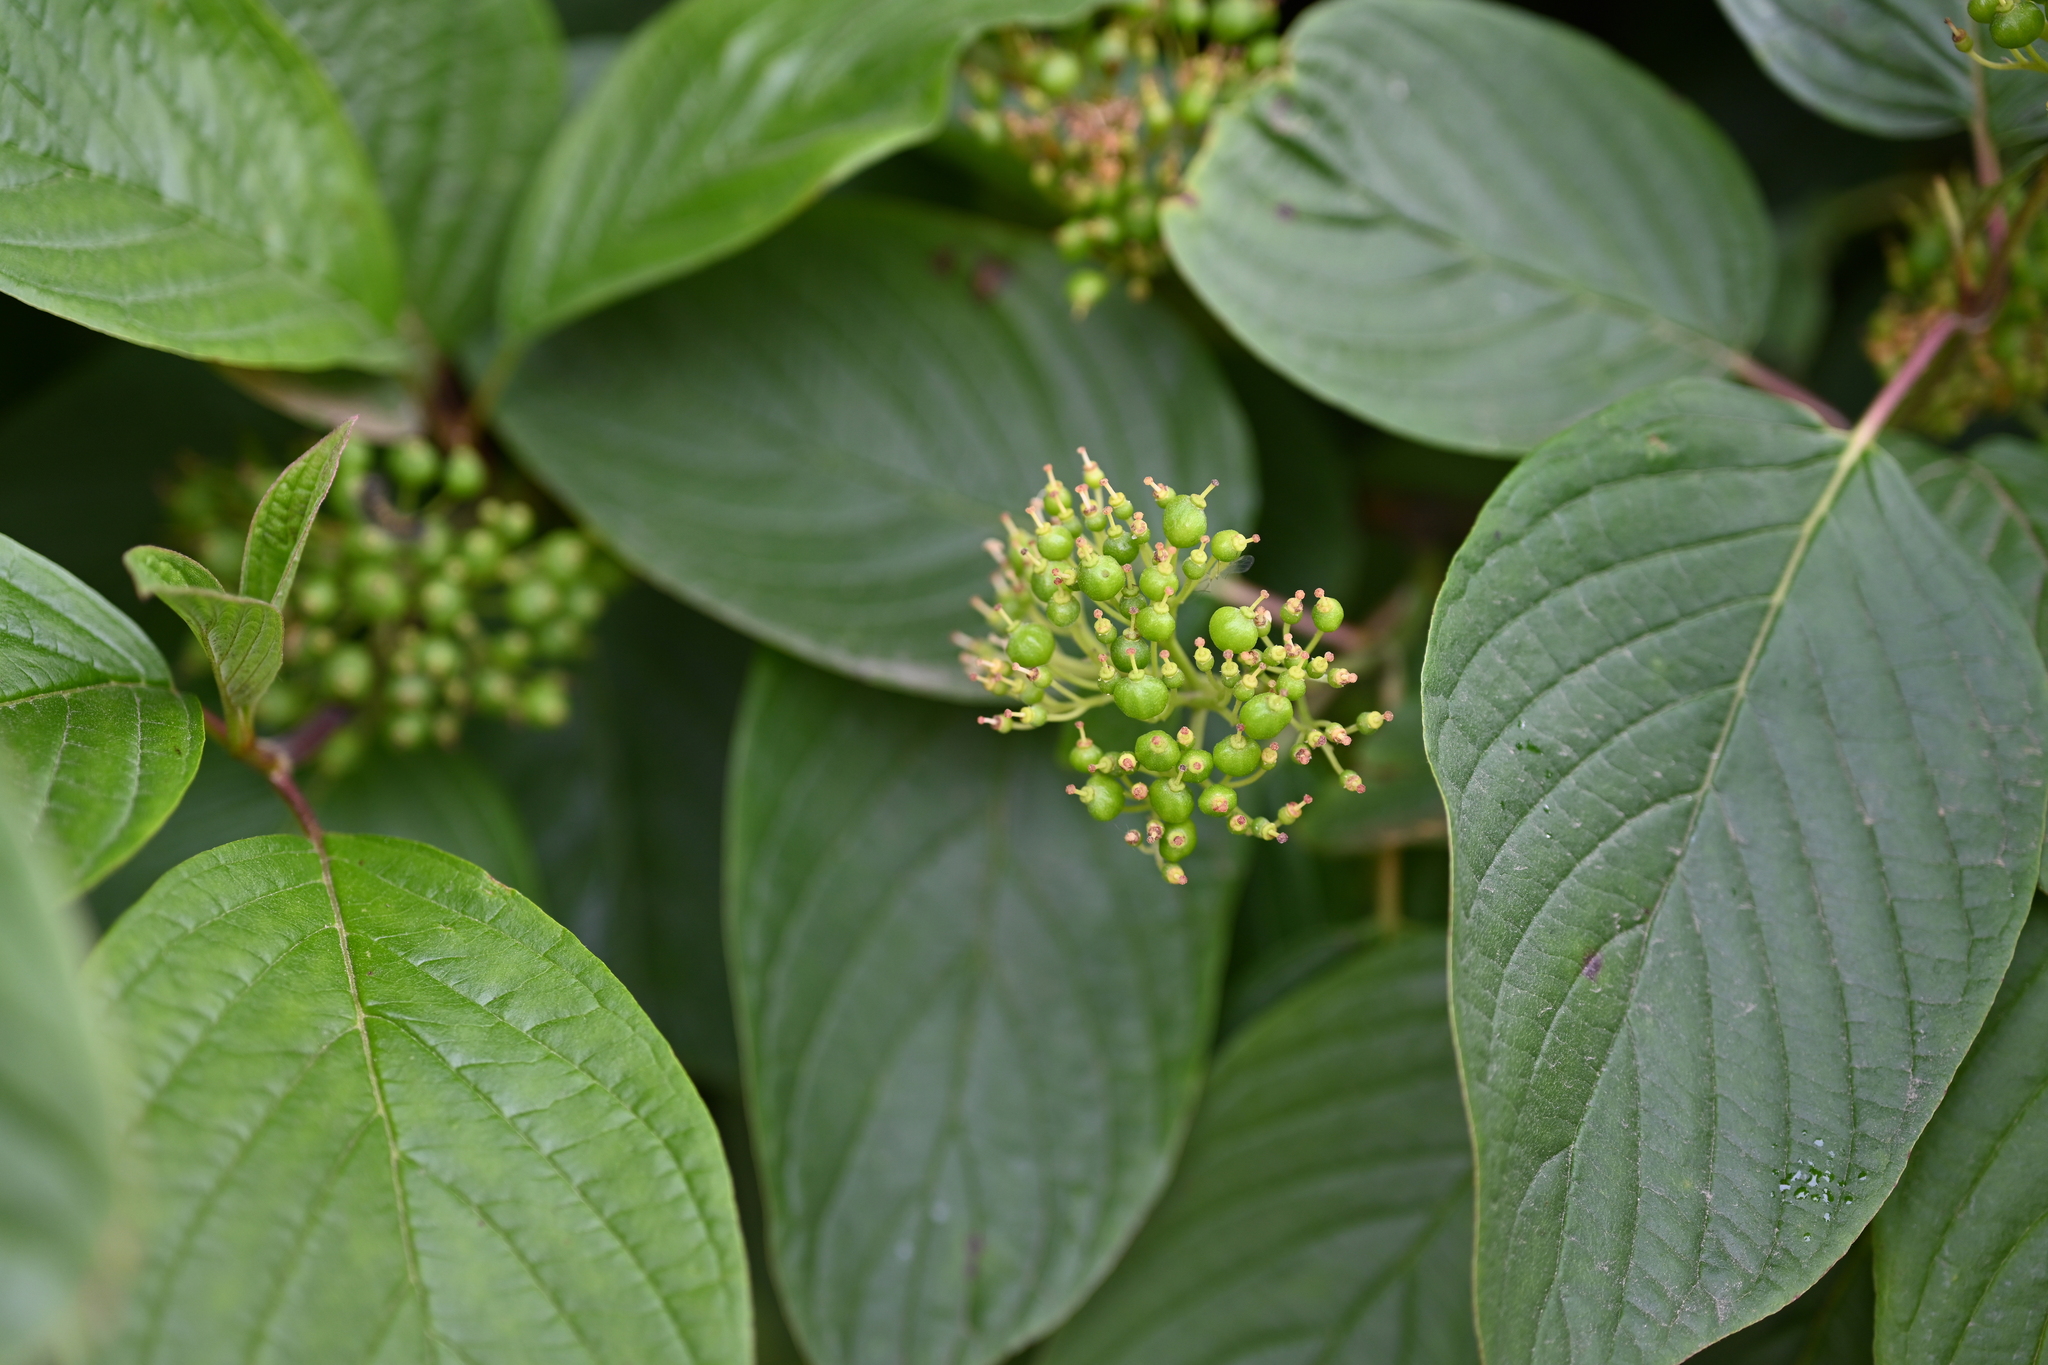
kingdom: Plantae
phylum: Tracheophyta
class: Magnoliopsida
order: Cornales
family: Cornaceae
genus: Cornus
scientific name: Cornus sericea
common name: Red-osier dogwood
